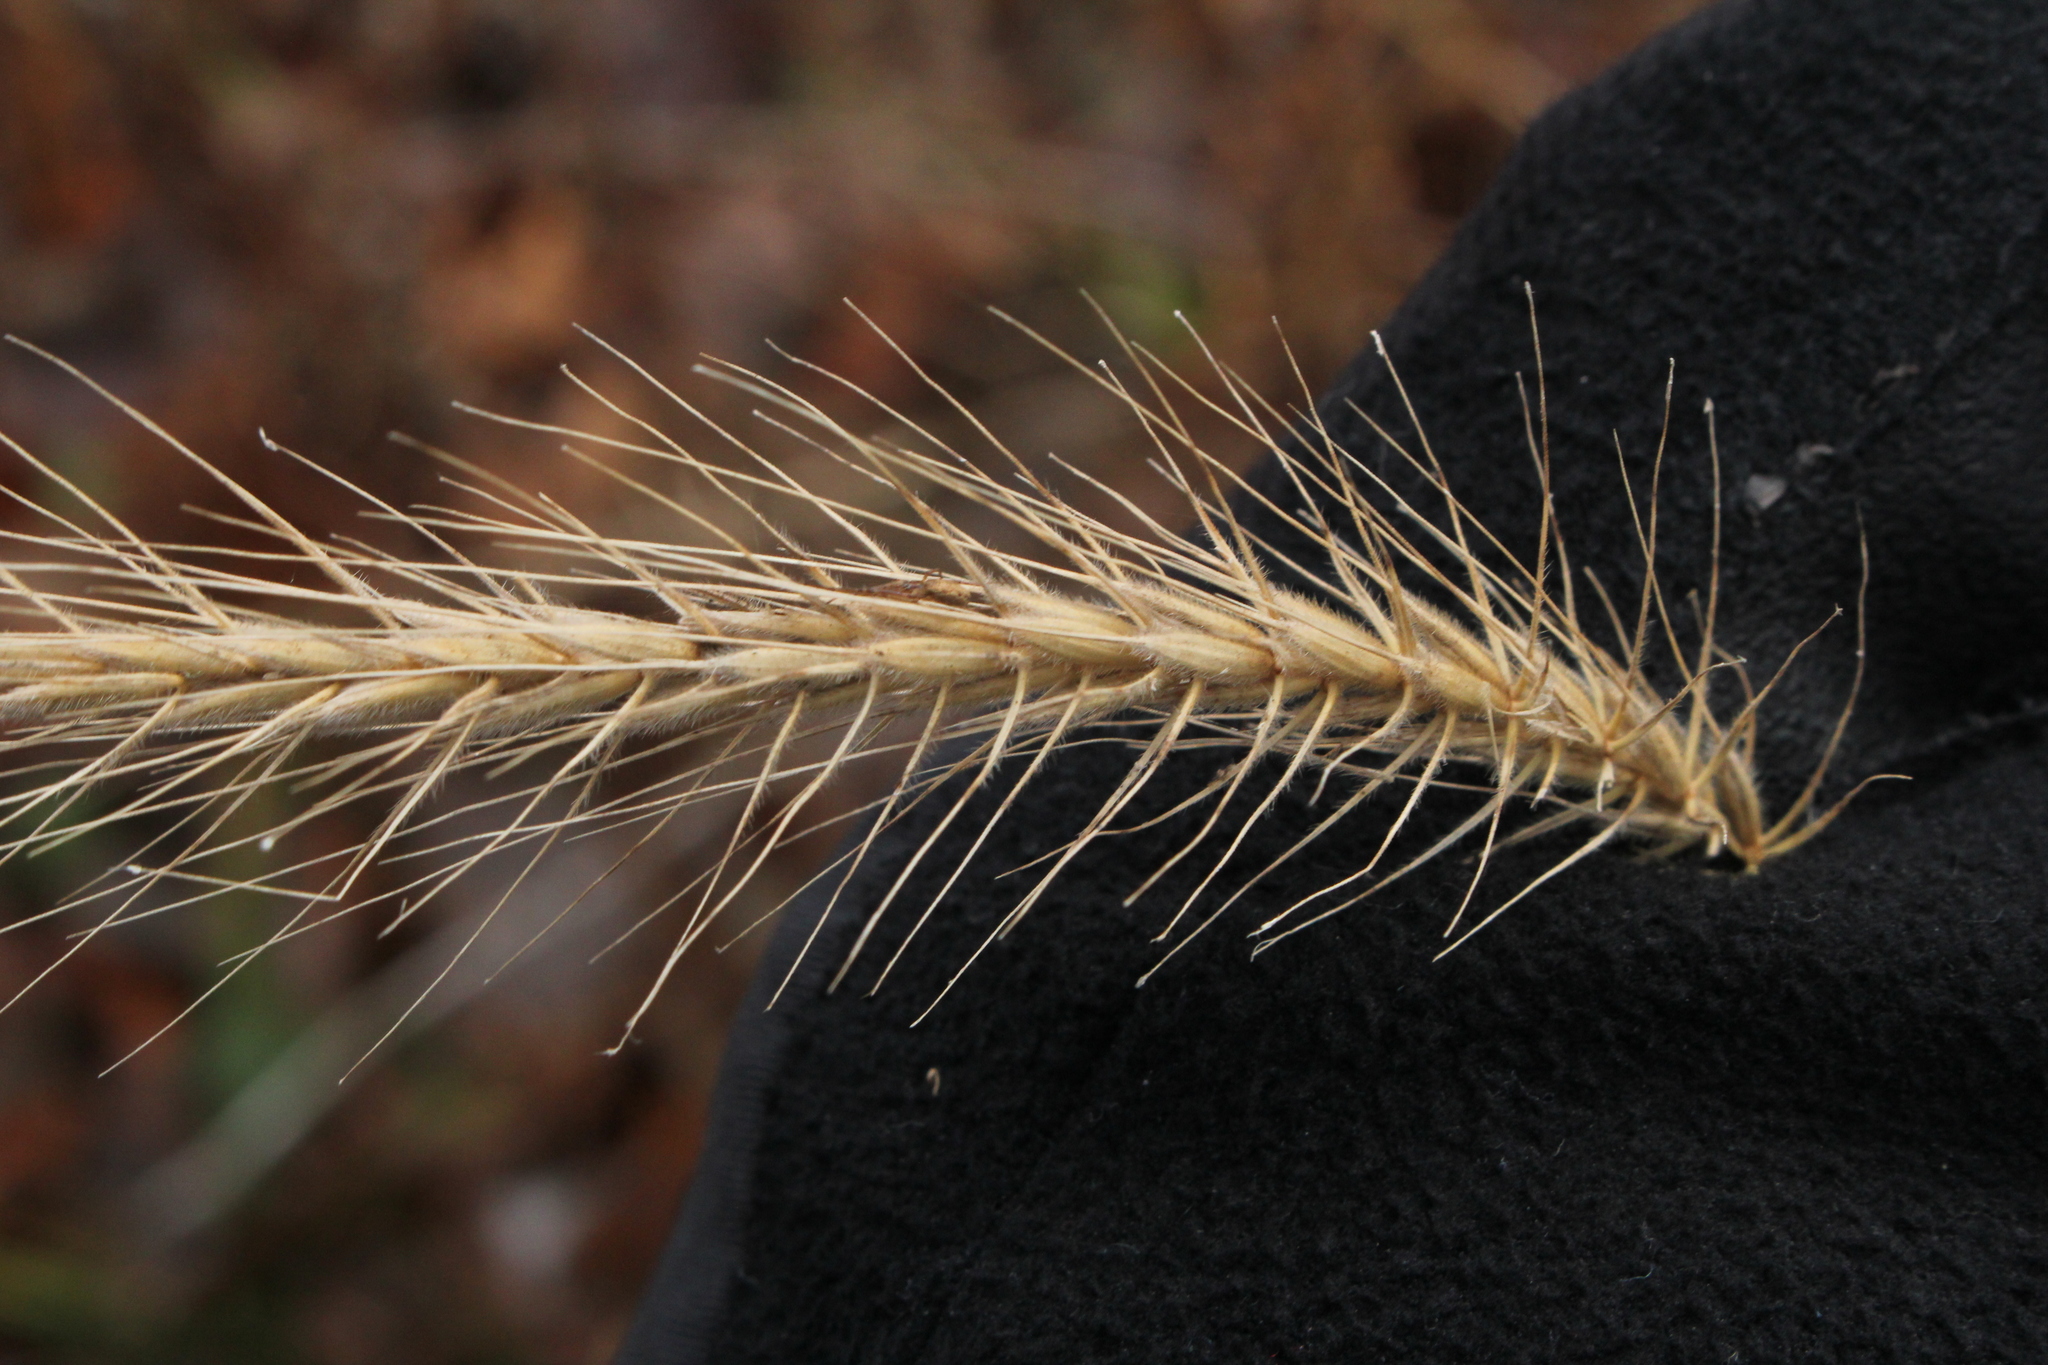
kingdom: Plantae
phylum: Tracheophyta
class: Liliopsida
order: Poales
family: Poaceae
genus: Elymus
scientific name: Elymus villosus
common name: Downy wild rye
